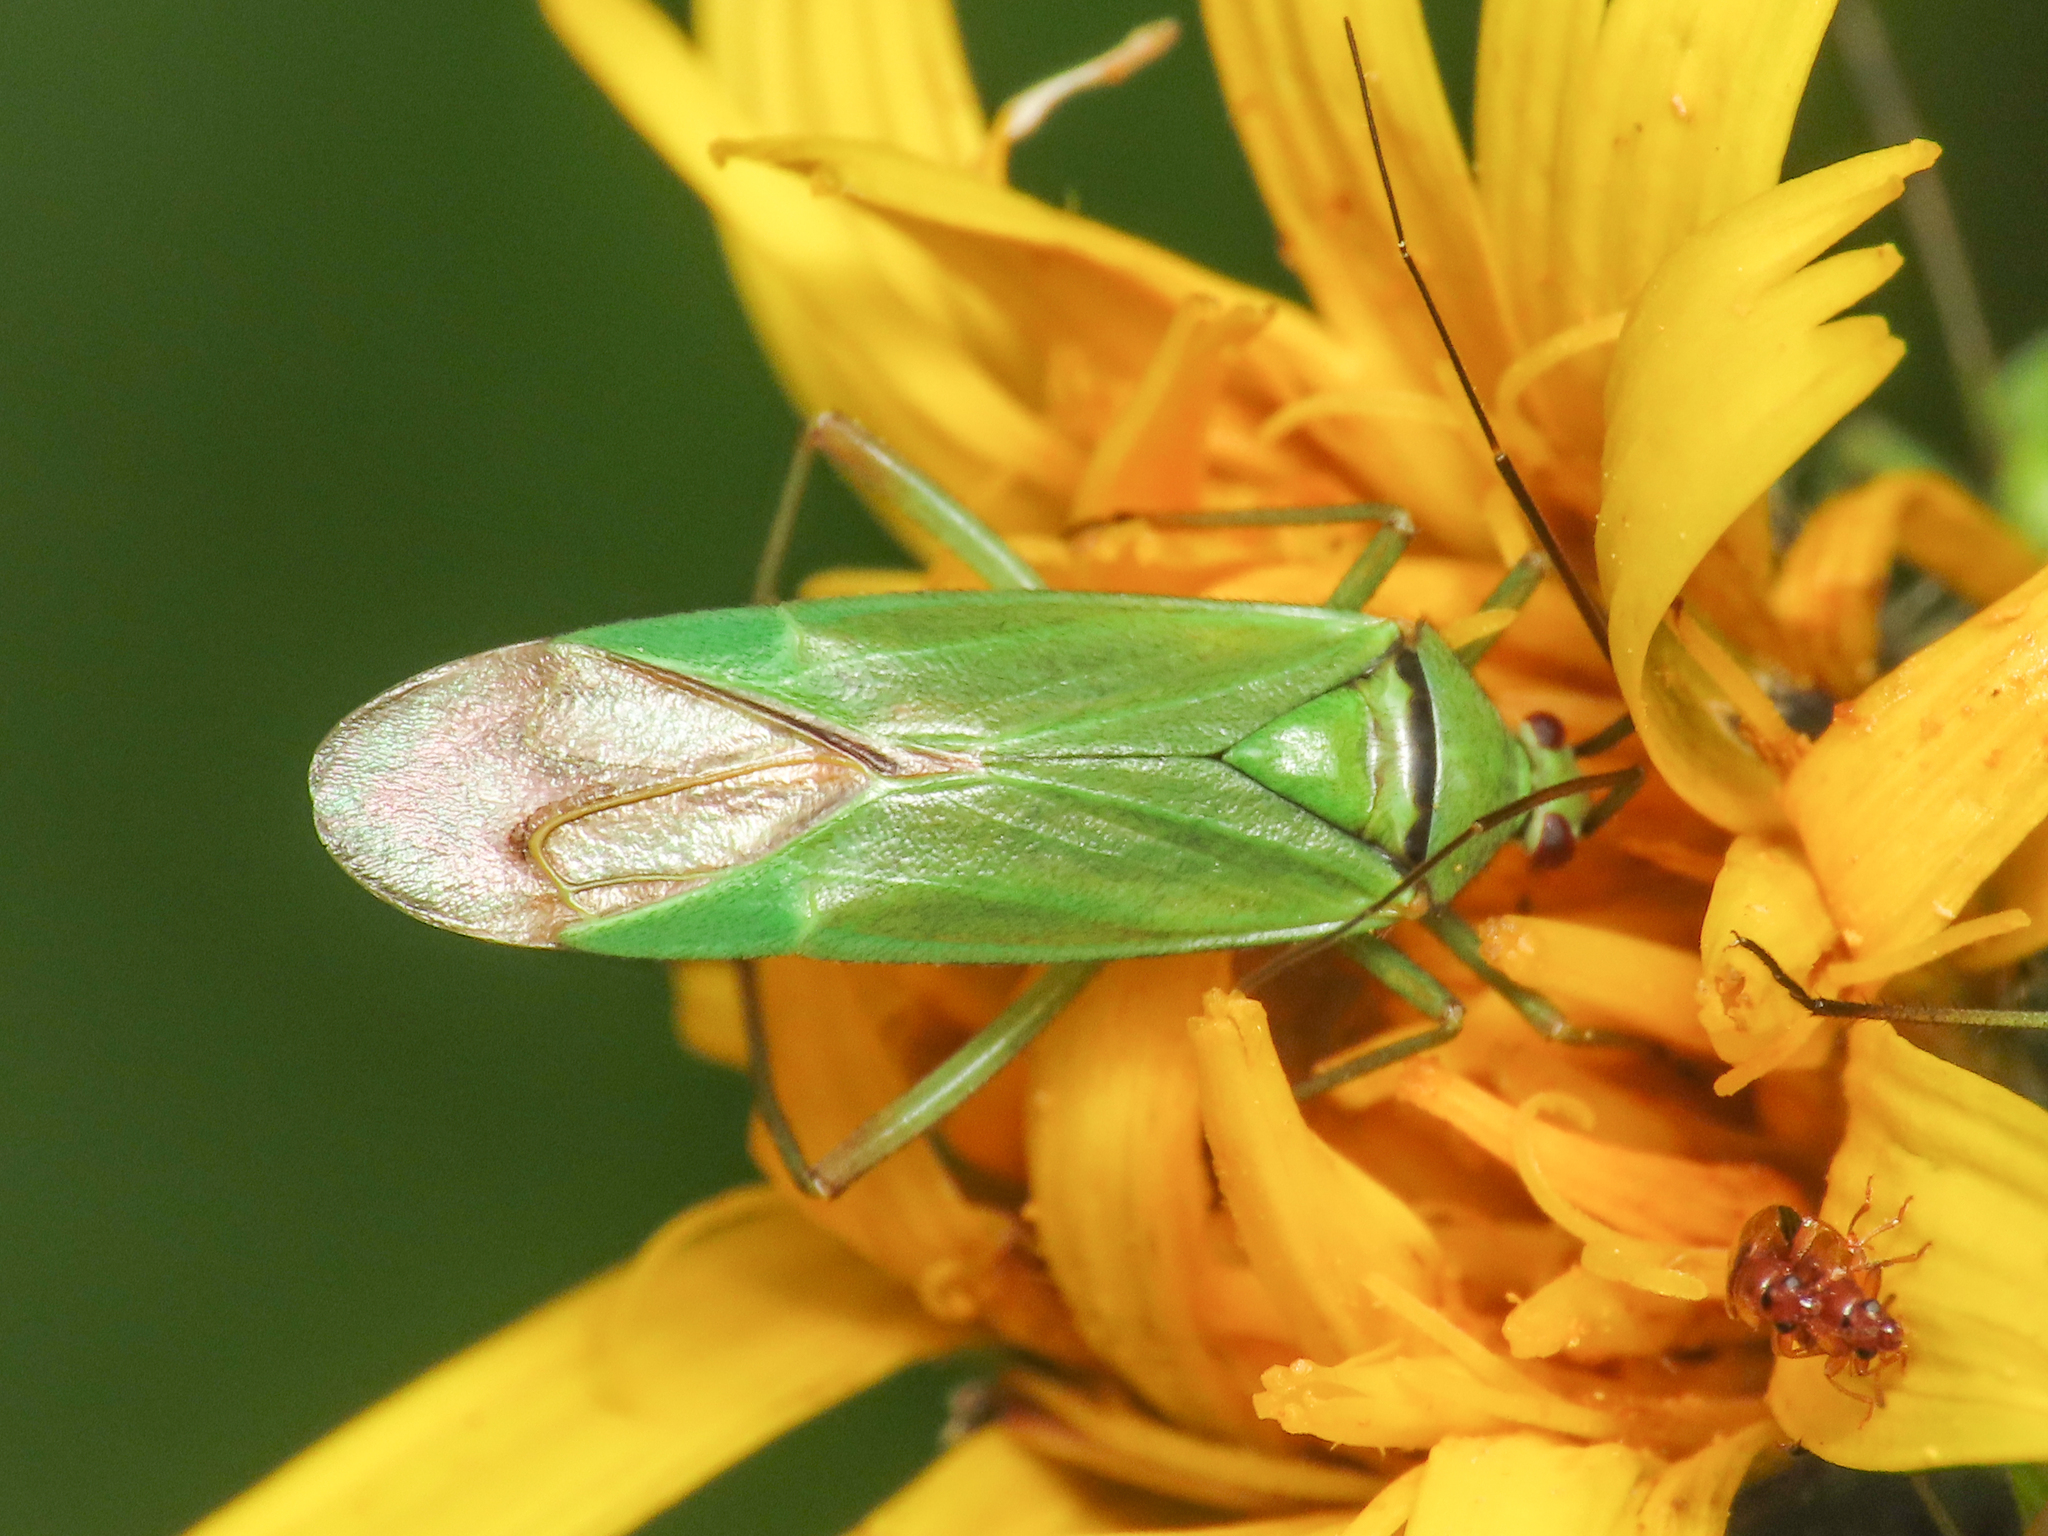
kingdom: Animalia
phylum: Arthropoda
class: Insecta
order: Hemiptera
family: Miridae
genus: Calocoris
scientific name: Calocoris alpestris
